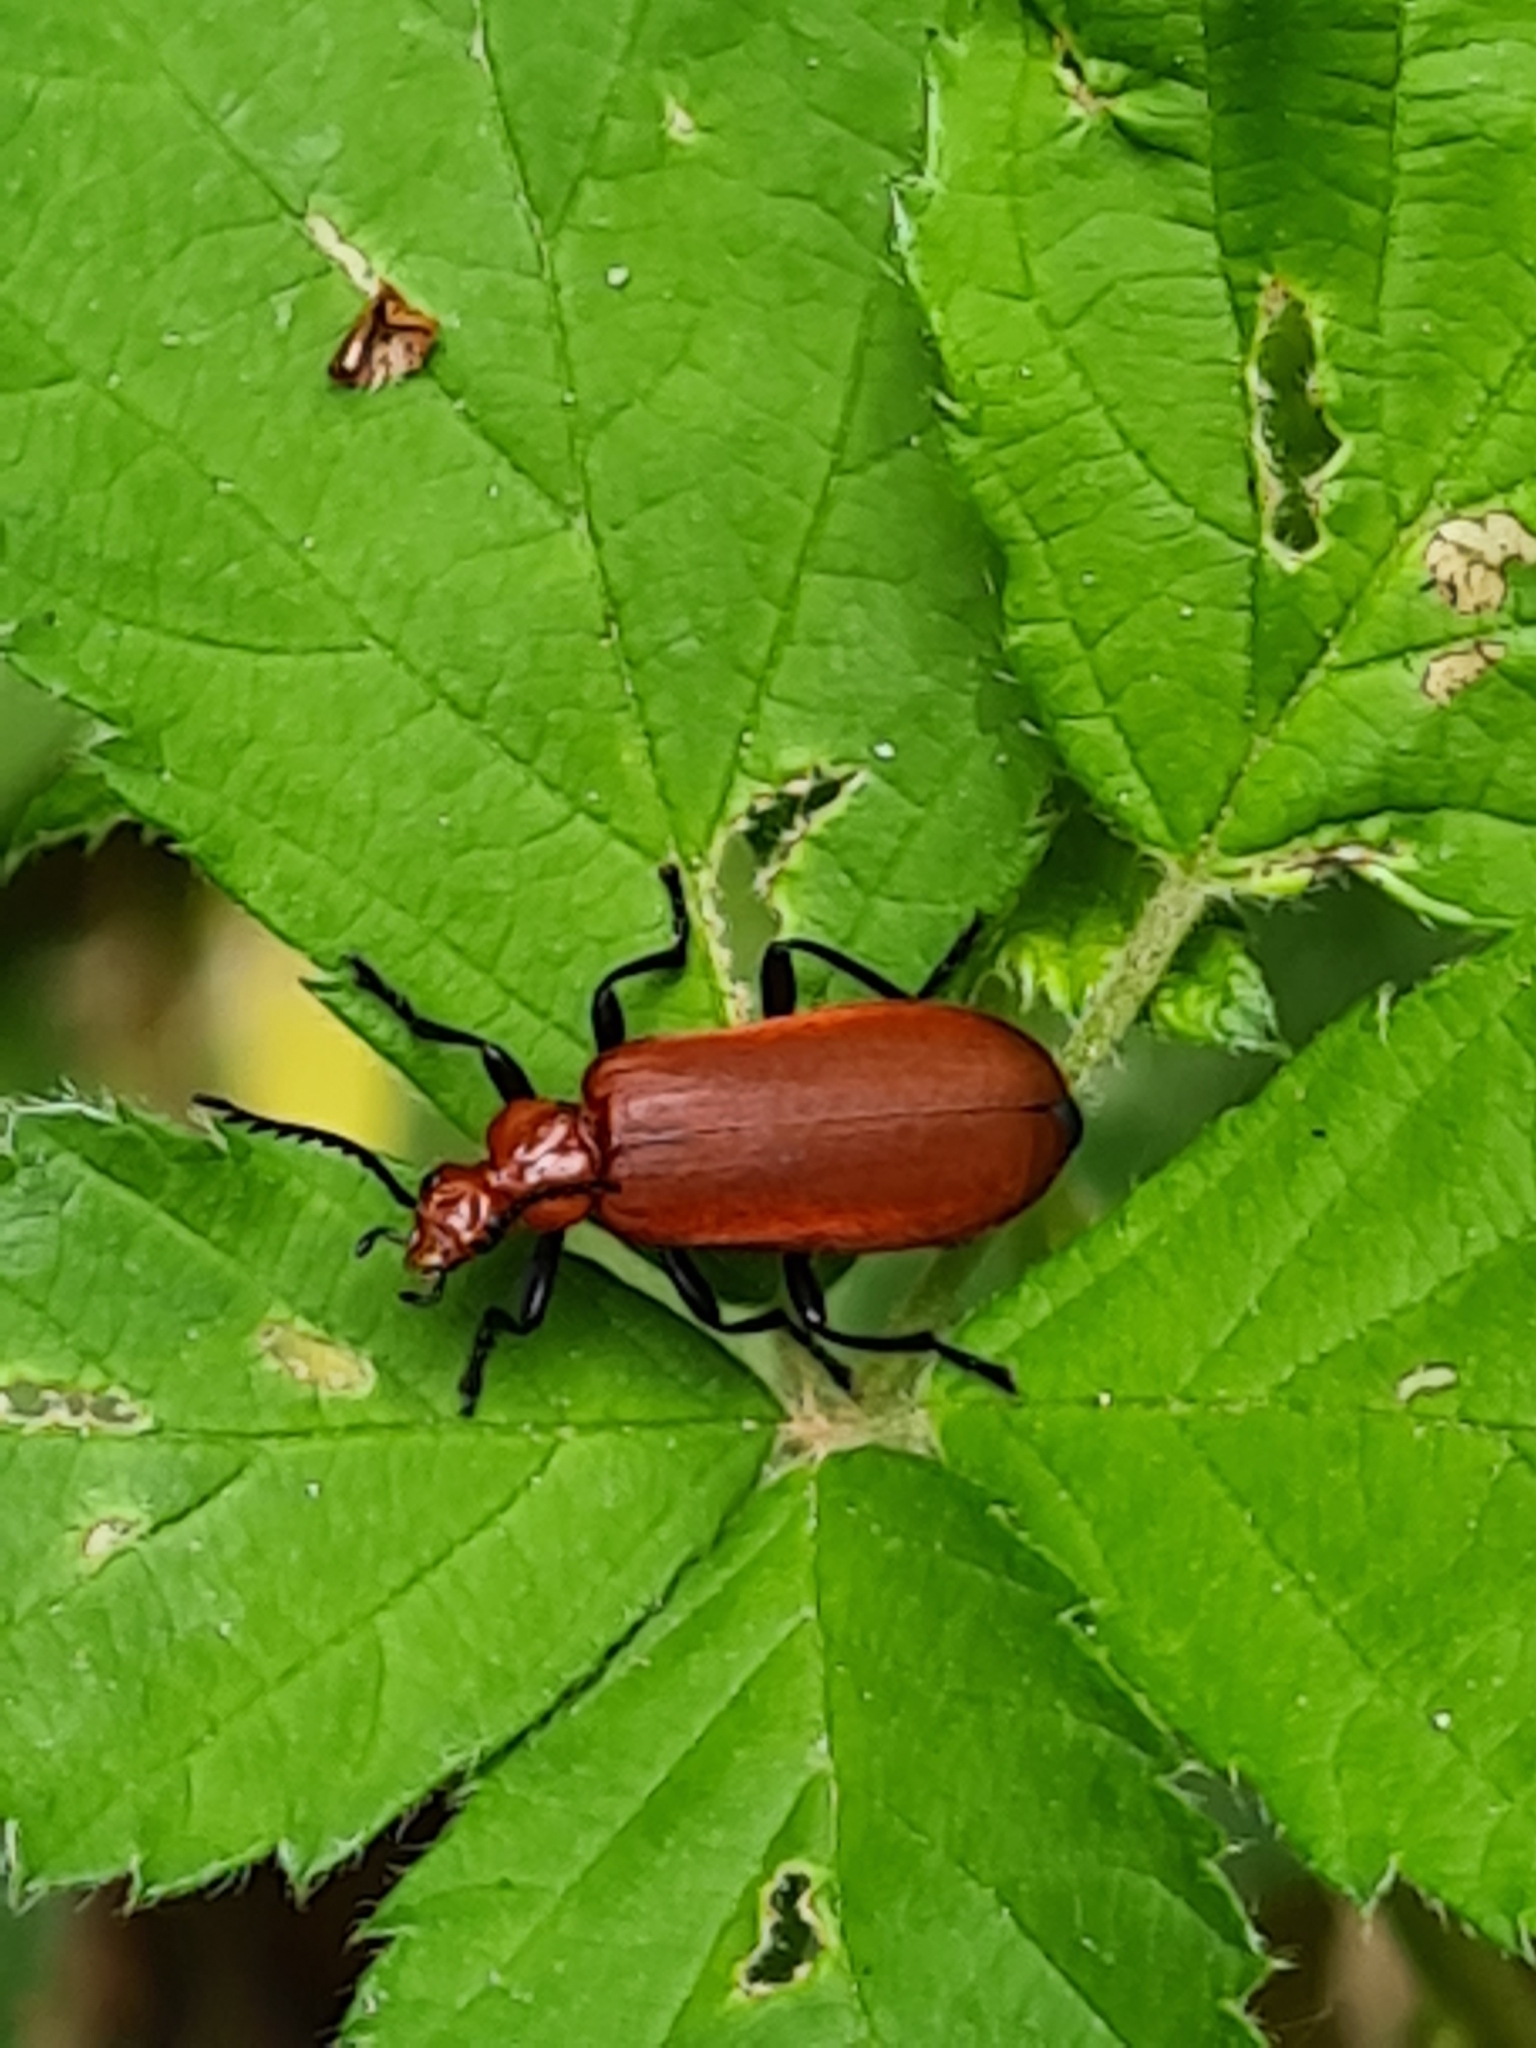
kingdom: Animalia
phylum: Arthropoda
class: Insecta
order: Coleoptera
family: Pyrochroidae
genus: Pyrochroa
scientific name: Pyrochroa serraticornis
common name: Red-headed cardinal beetle
